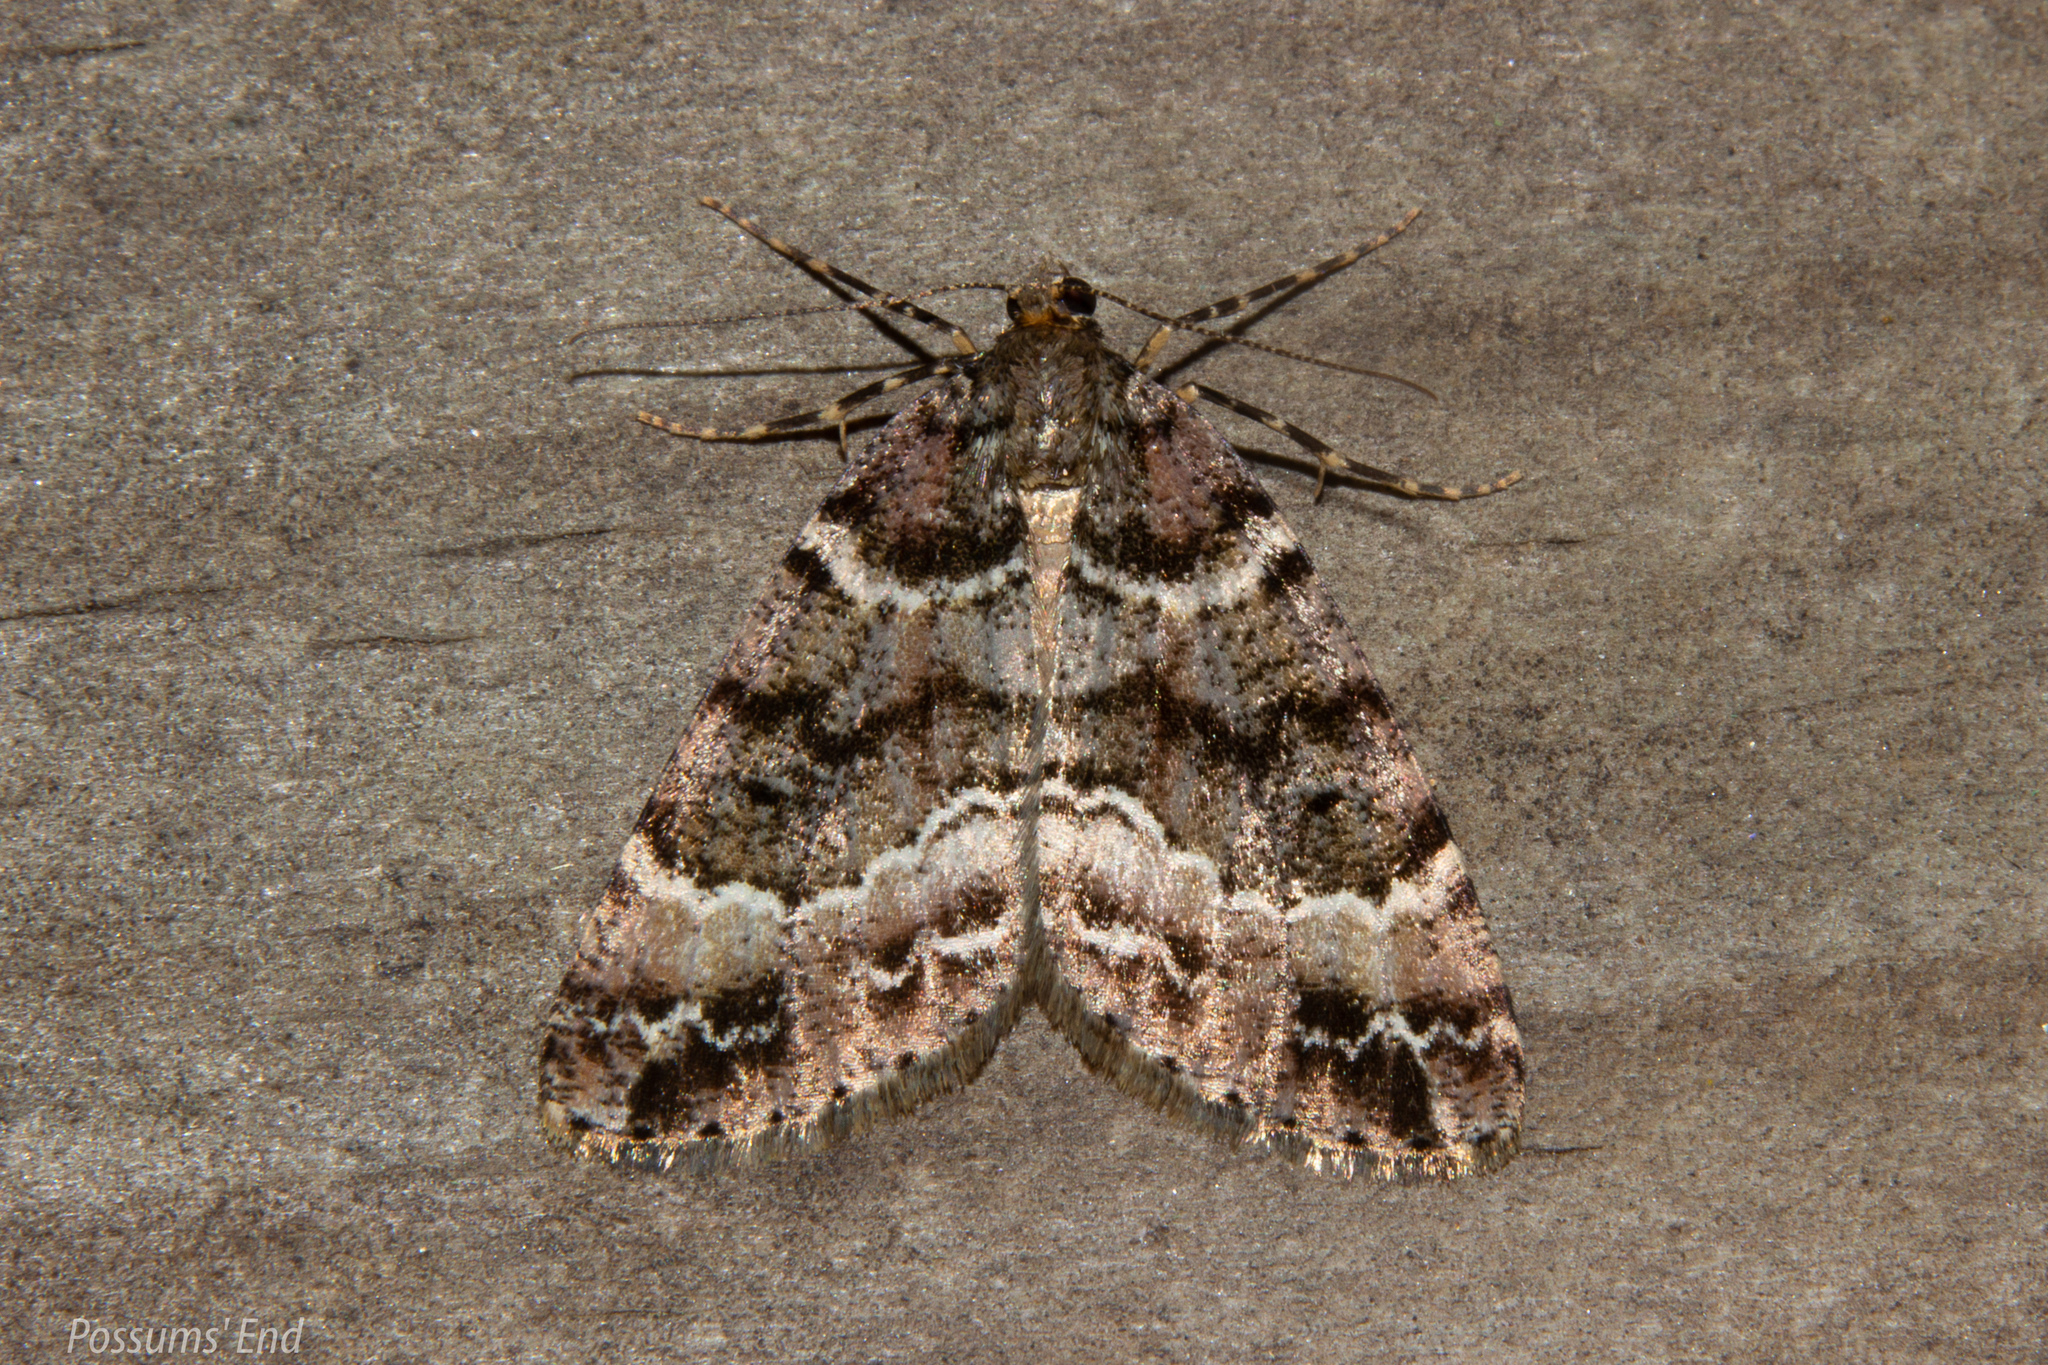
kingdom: Animalia
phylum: Arthropoda
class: Insecta
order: Lepidoptera
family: Geometridae
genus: Pseudocoremia
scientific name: Pseudocoremia productata
